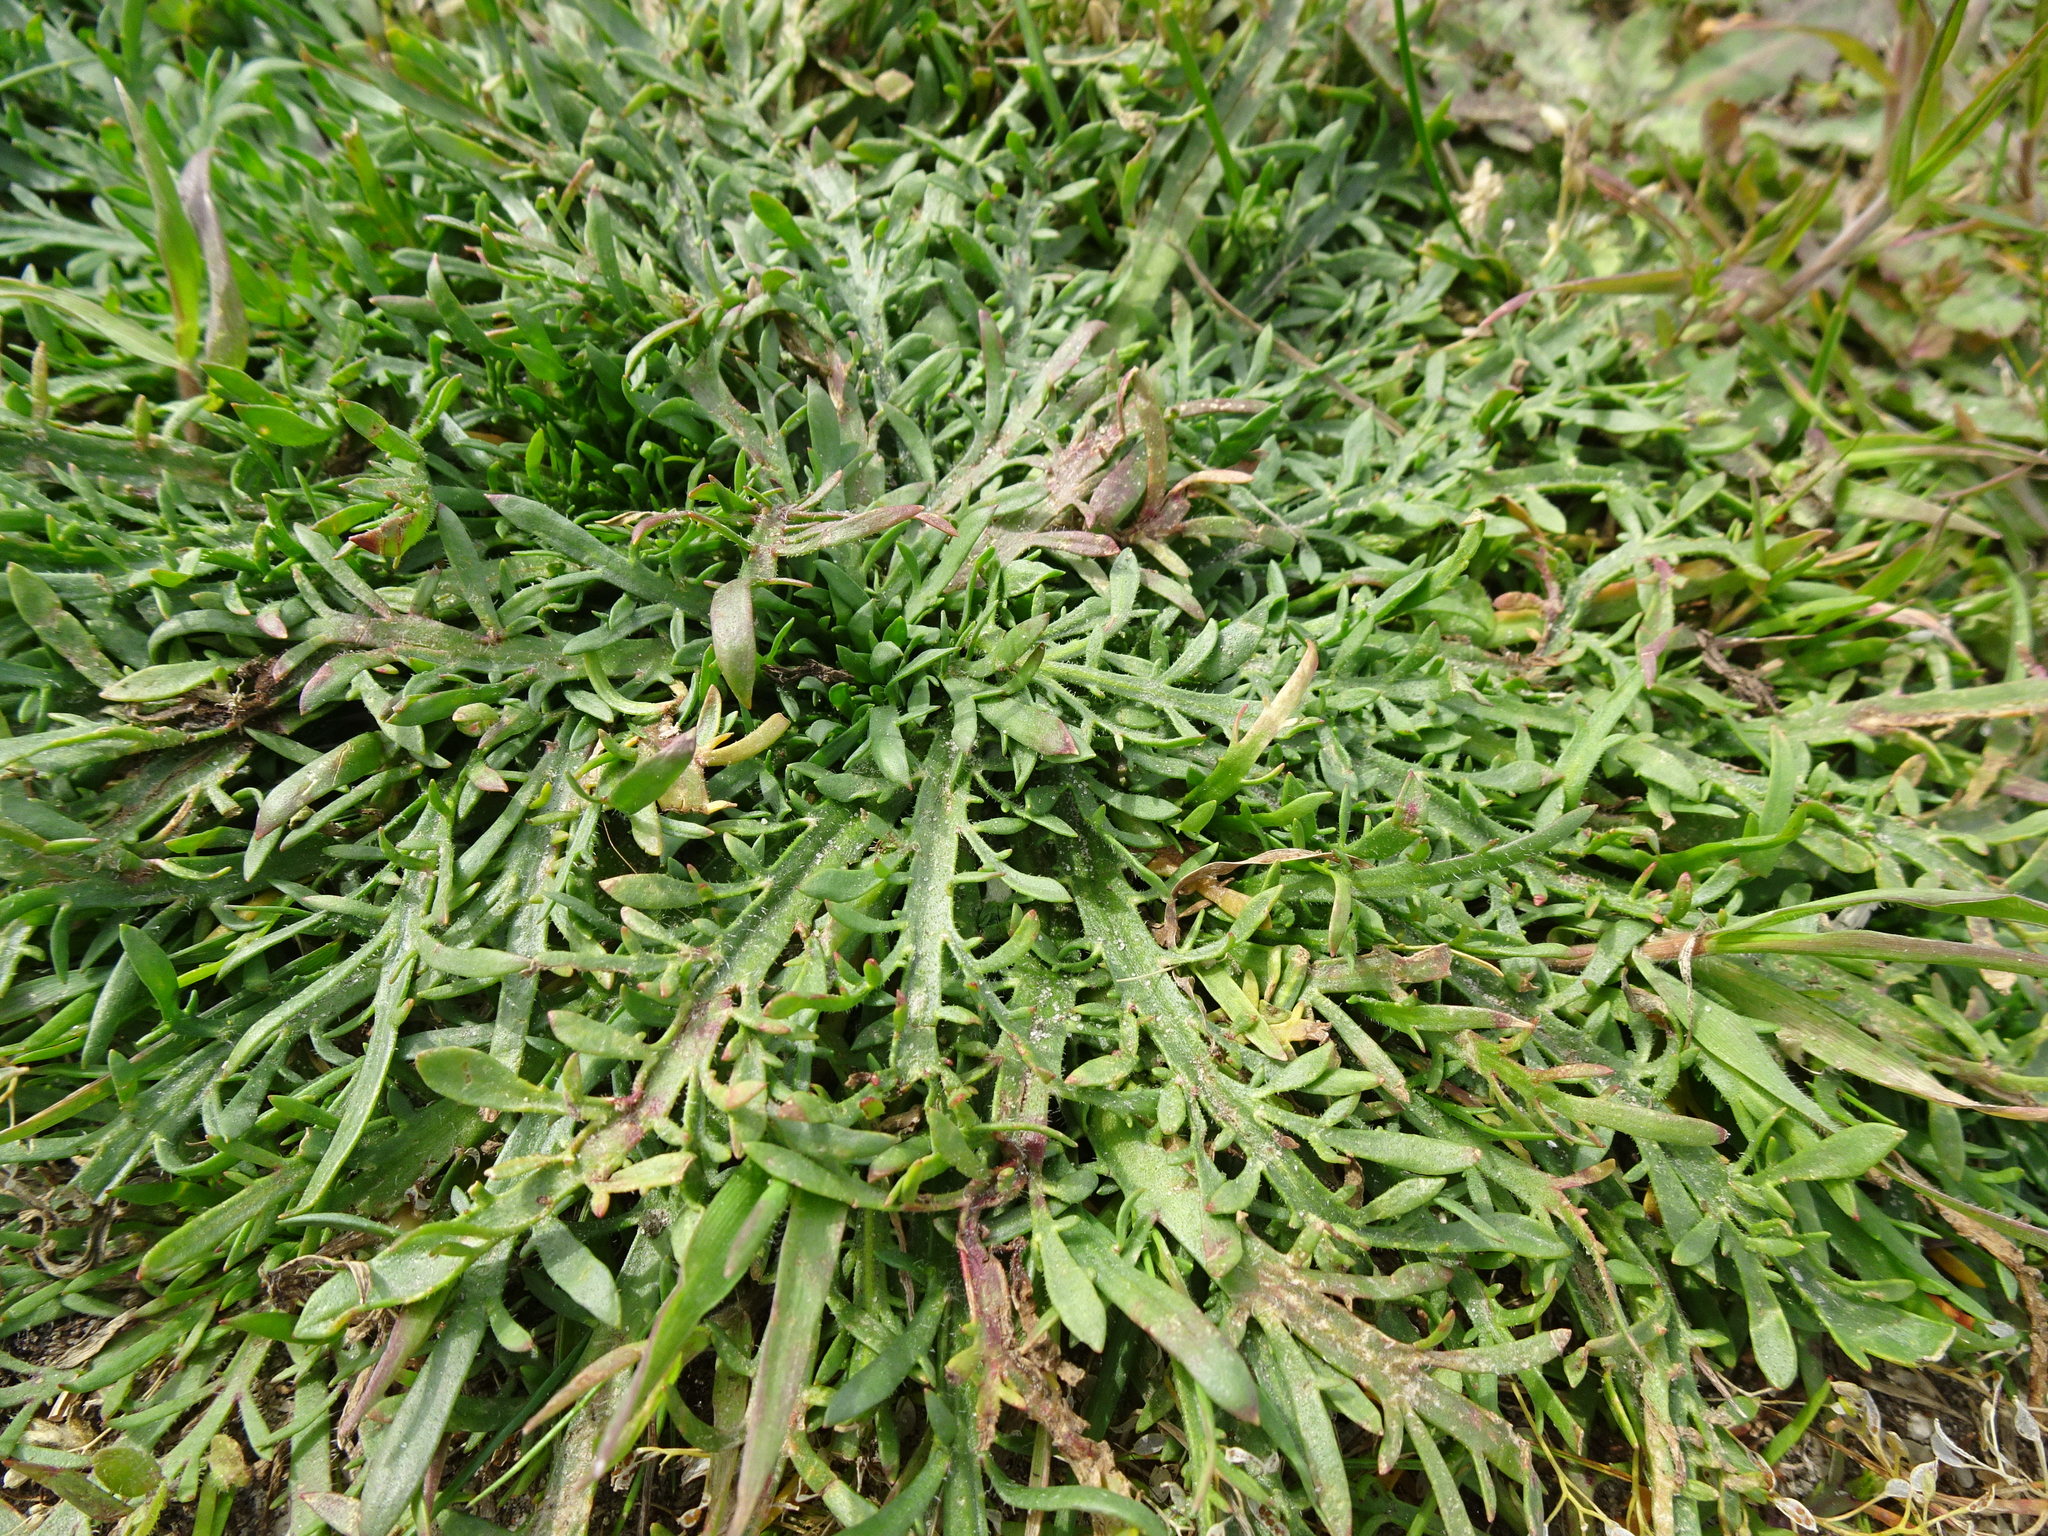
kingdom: Plantae
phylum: Tracheophyta
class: Magnoliopsida
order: Lamiales
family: Plantaginaceae
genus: Plantago
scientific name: Plantago coronopus
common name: Buck's-horn plantain
